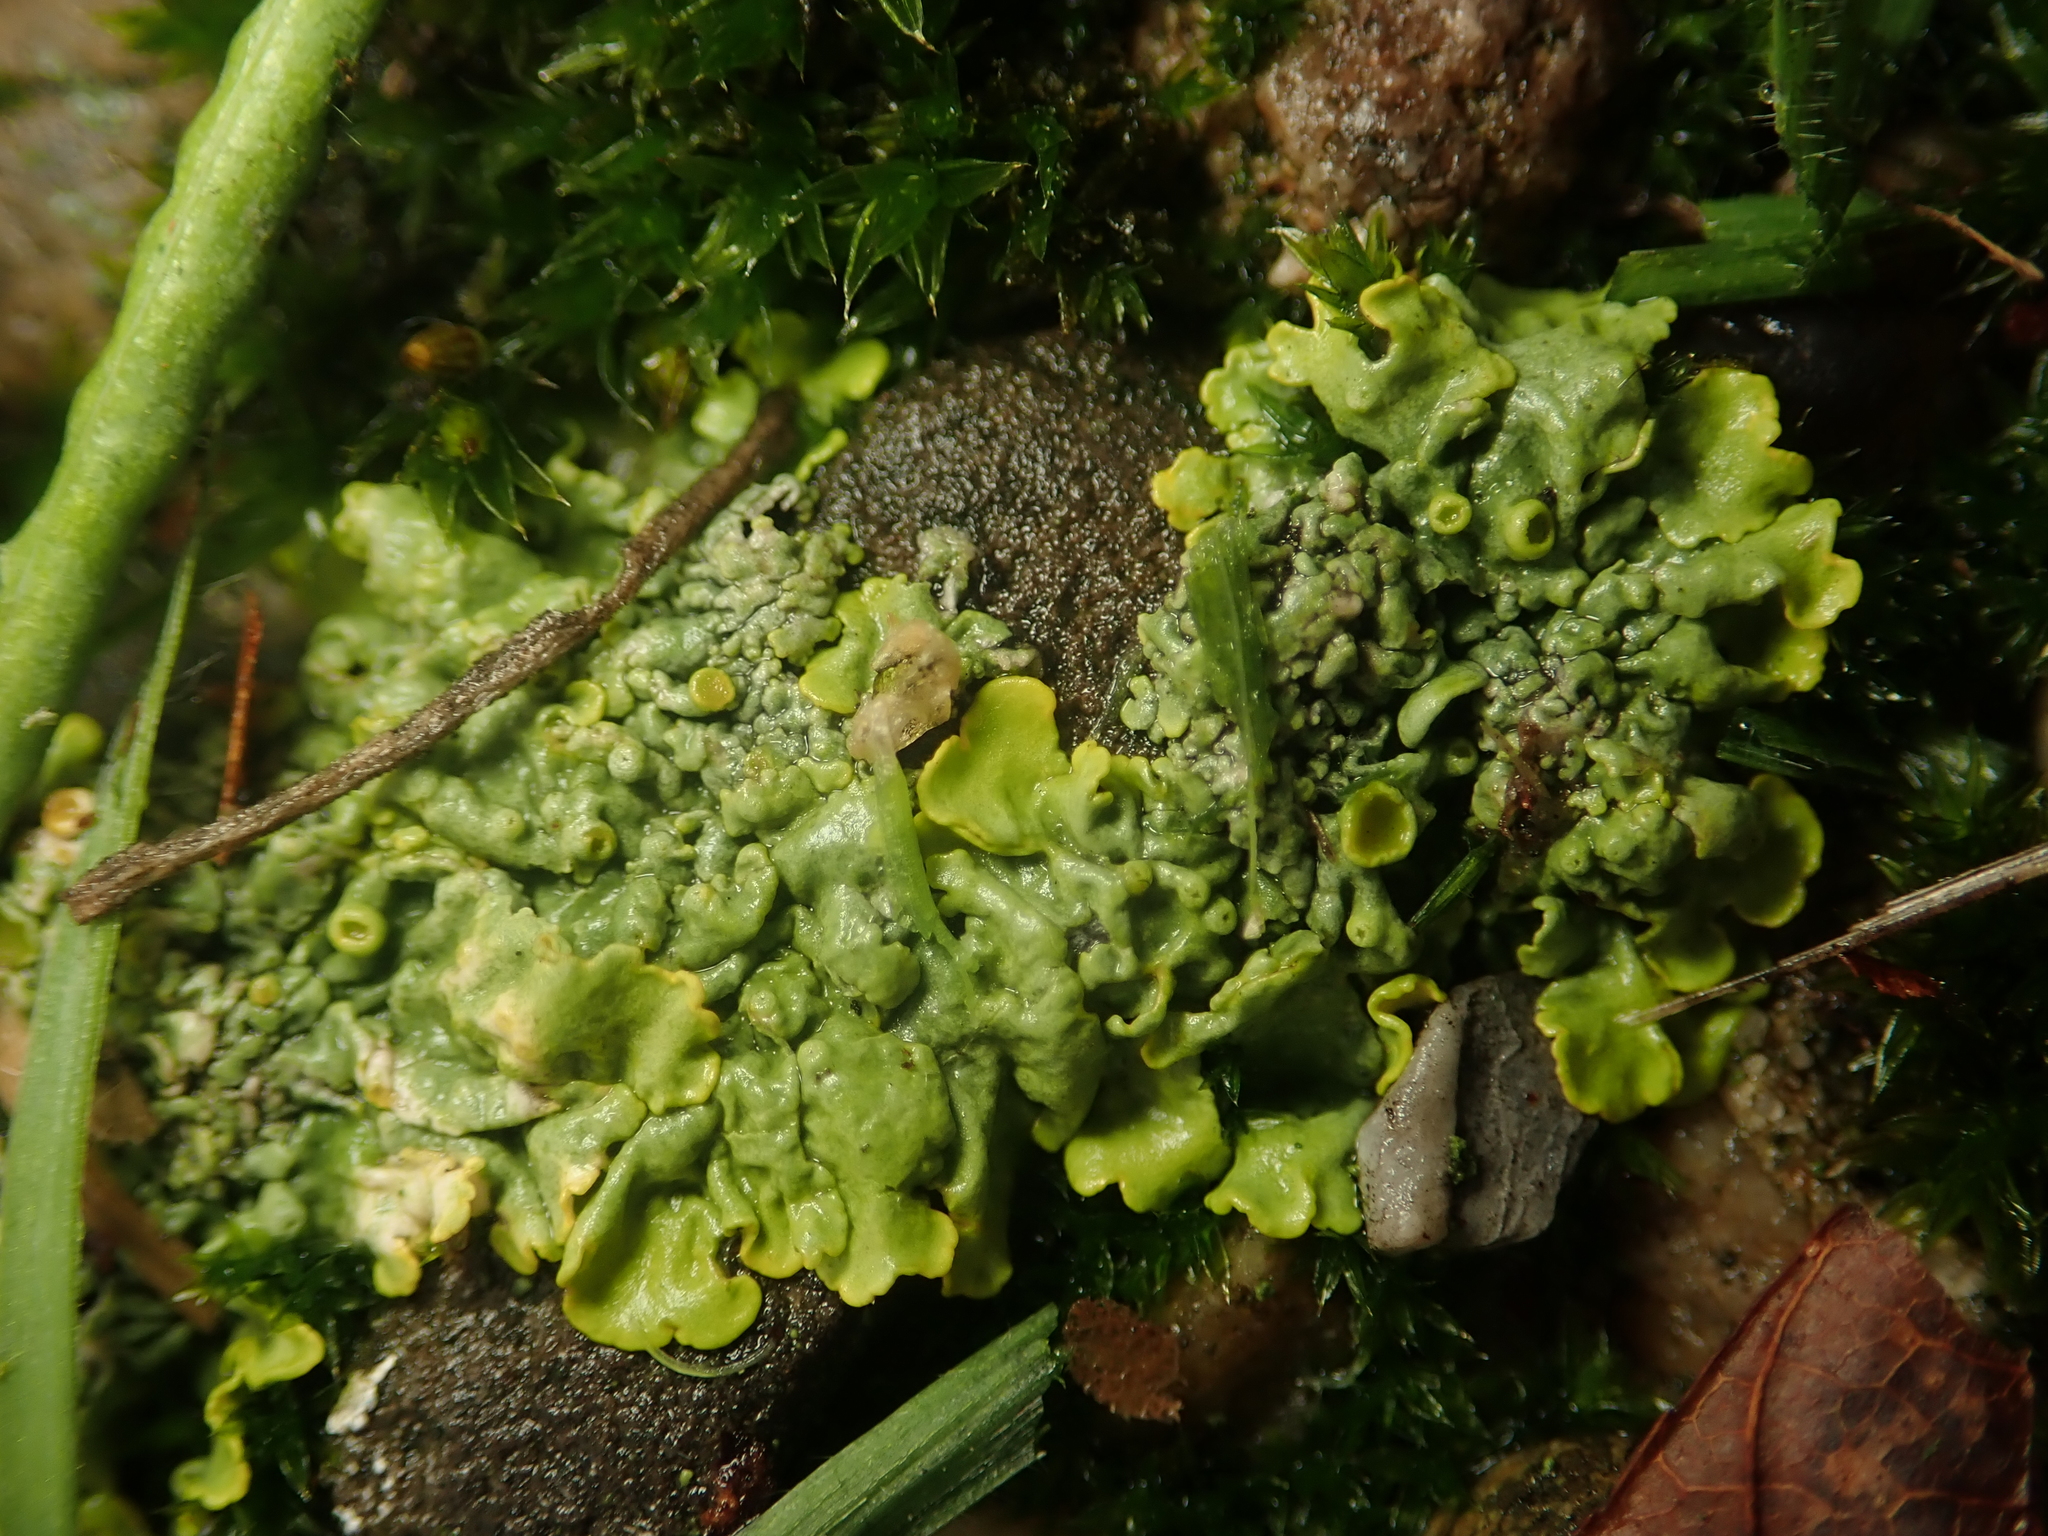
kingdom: Fungi
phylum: Ascomycota
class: Lecanoromycetes
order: Teloschistales
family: Teloschistaceae
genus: Xanthoria
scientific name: Xanthoria parietina
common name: Common orange lichen
